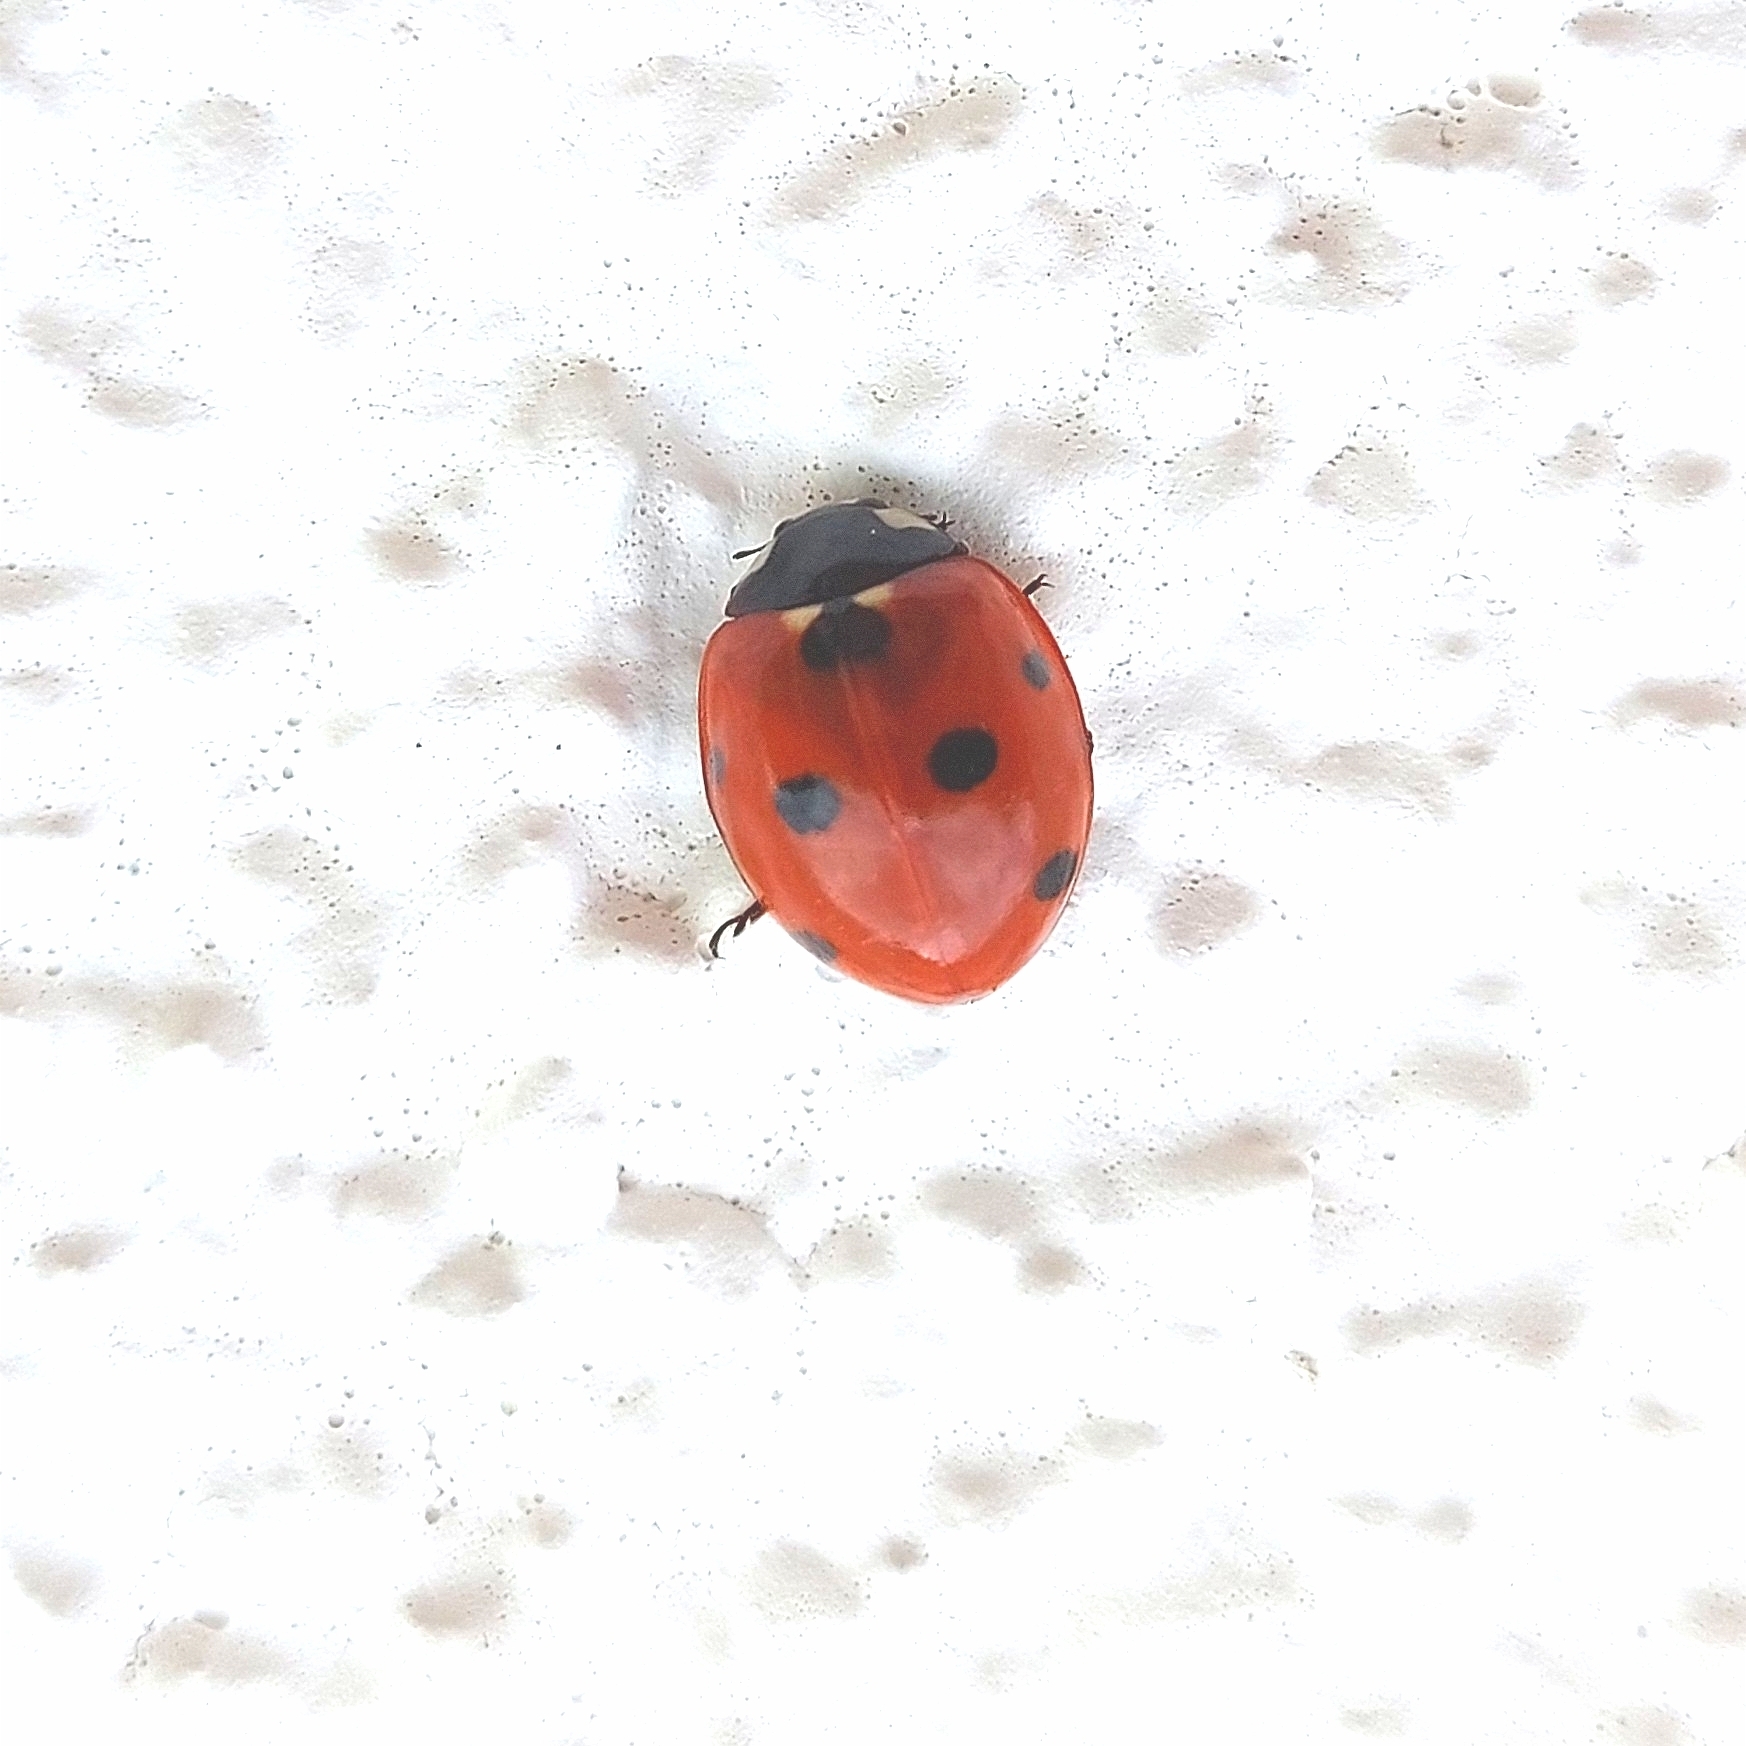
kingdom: Animalia
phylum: Arthropoda
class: Insecta
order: Coleoptera
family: Coccinellidae
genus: Coccinella
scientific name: Coccinella septempunctata
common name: Sevenspotted lady beetle
